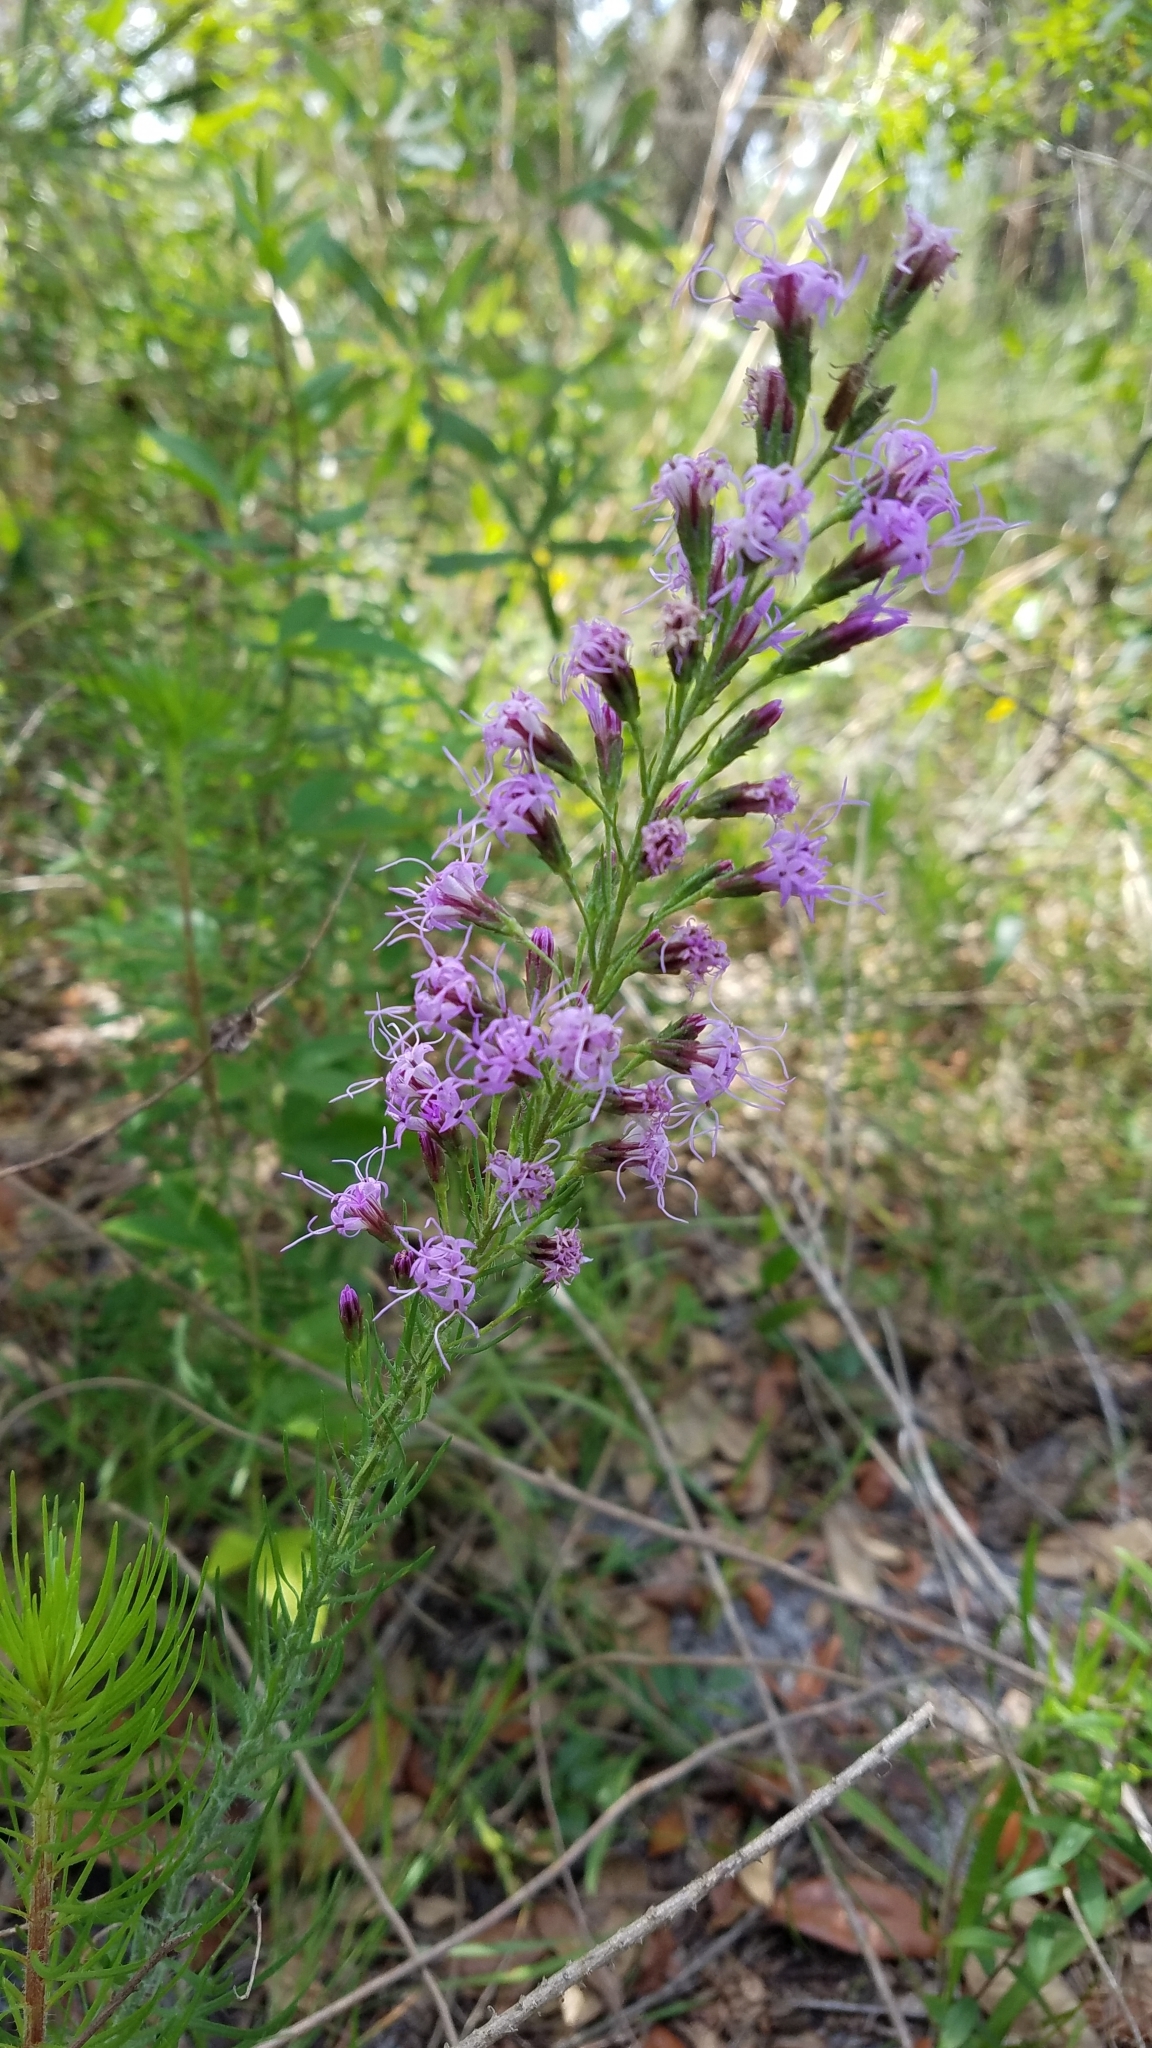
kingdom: Plantae
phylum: Tracheophyta
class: Magnoliopsida
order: Asterales
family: Asteraceae
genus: Liatris
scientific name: Liatris gracilis
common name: Slender gayfeather
